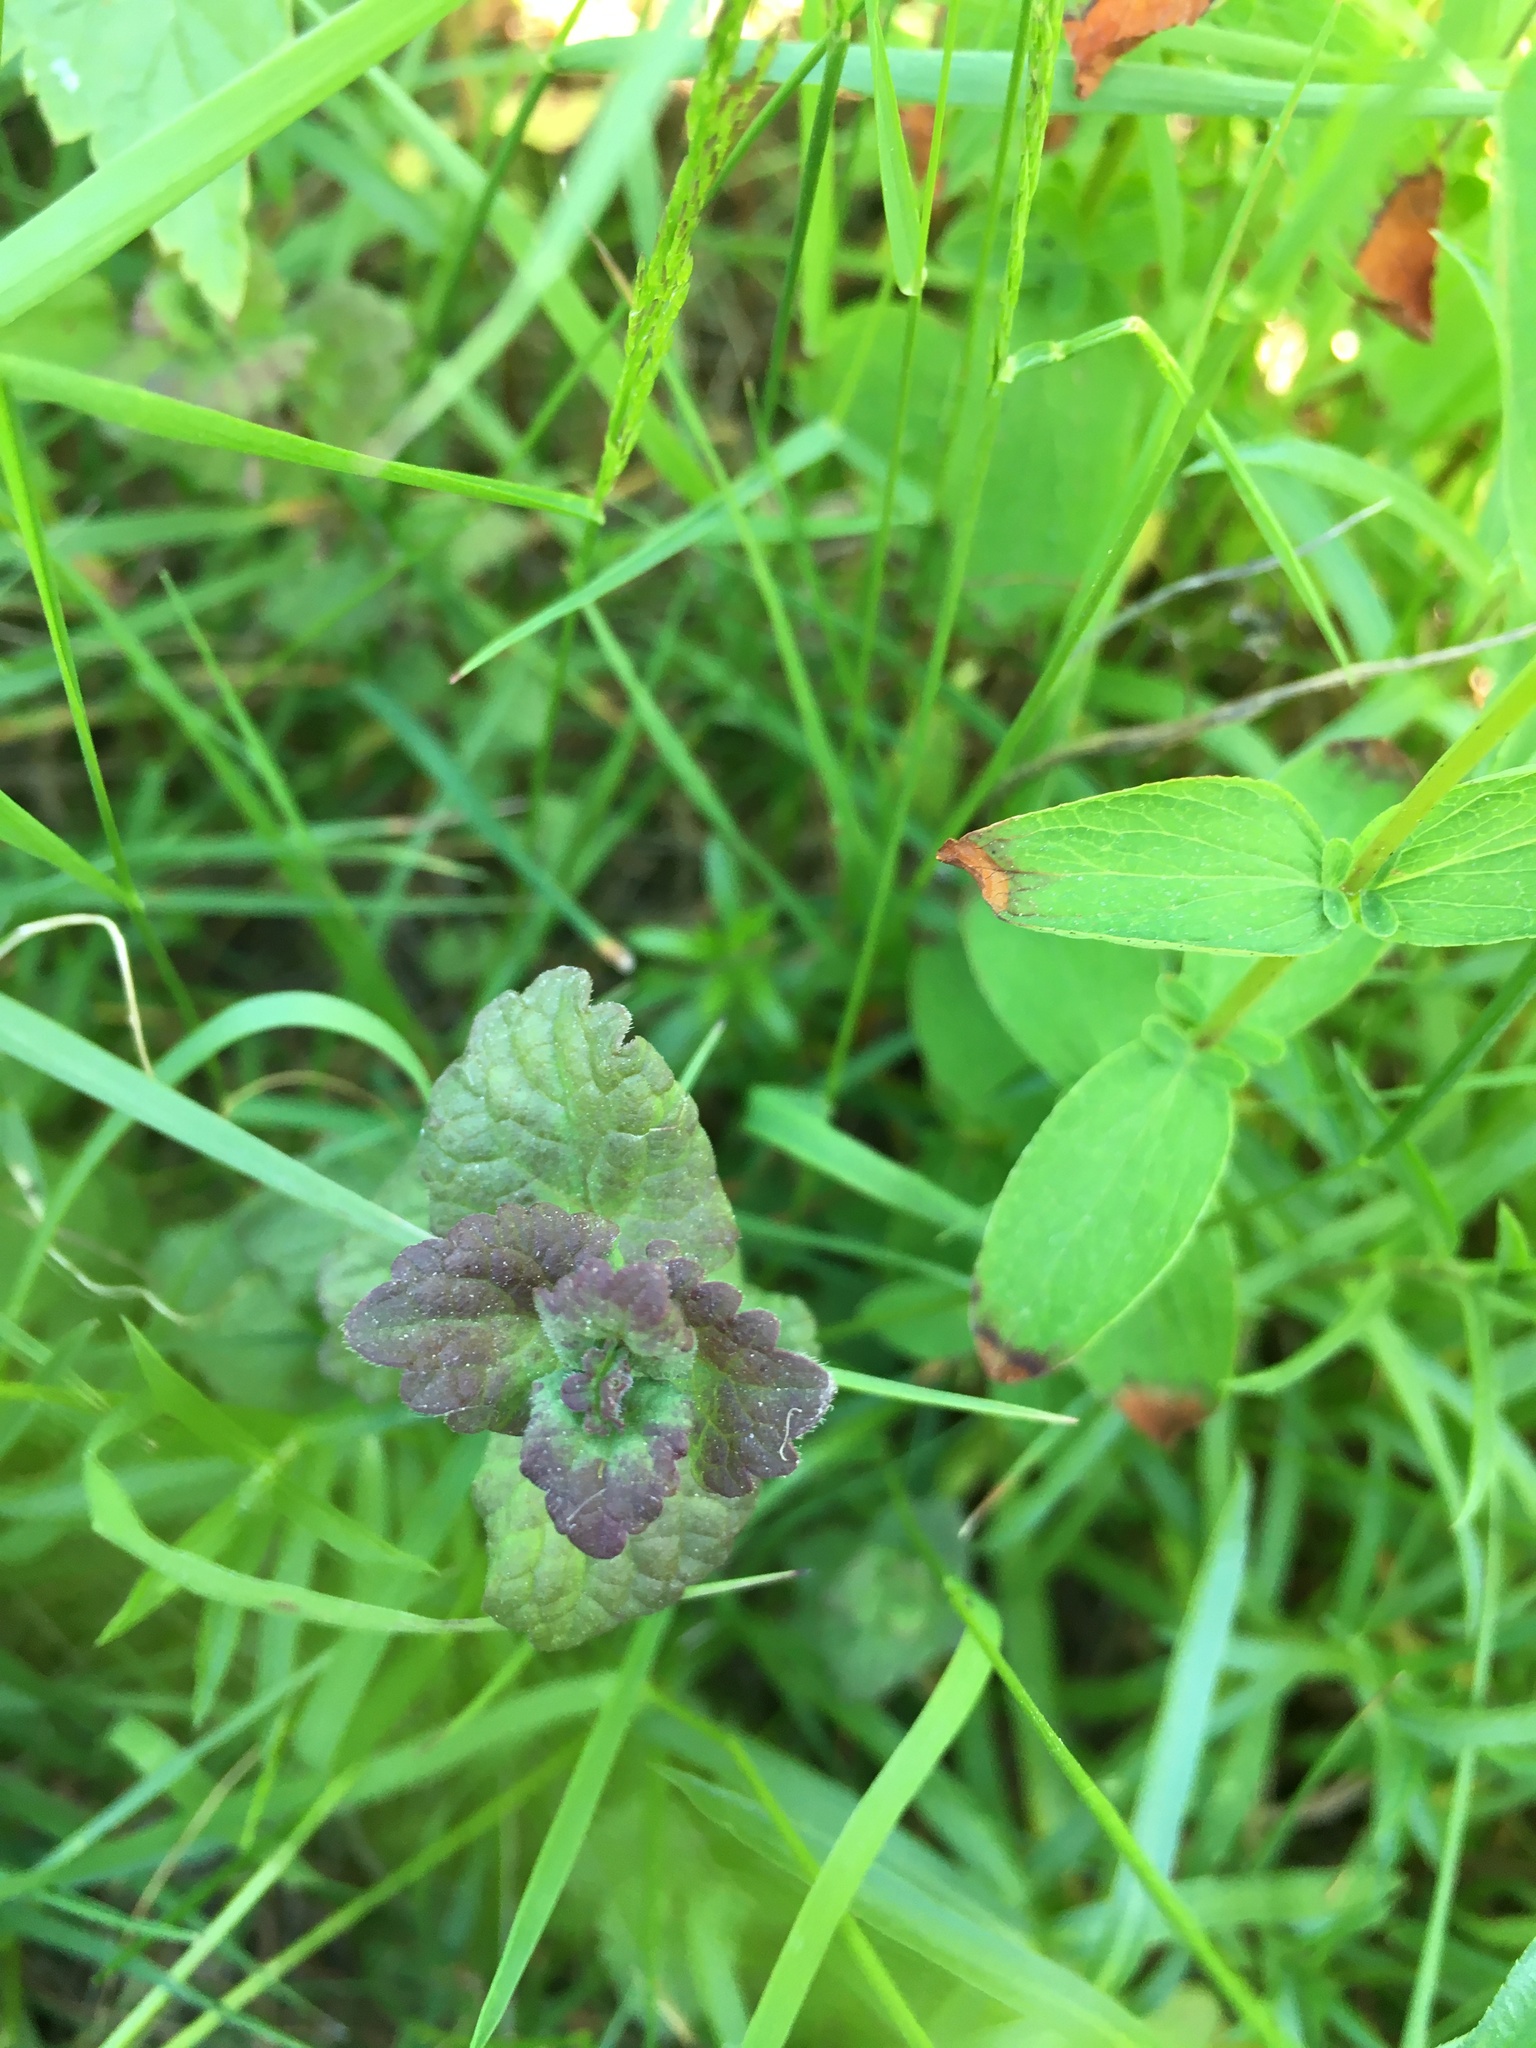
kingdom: Plantae
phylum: Tracheophyta
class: Magnoliopsida
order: Lamiales
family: Plantaginaceae
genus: Veronica
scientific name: Veronica chamaedrys
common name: Germander speedwell
